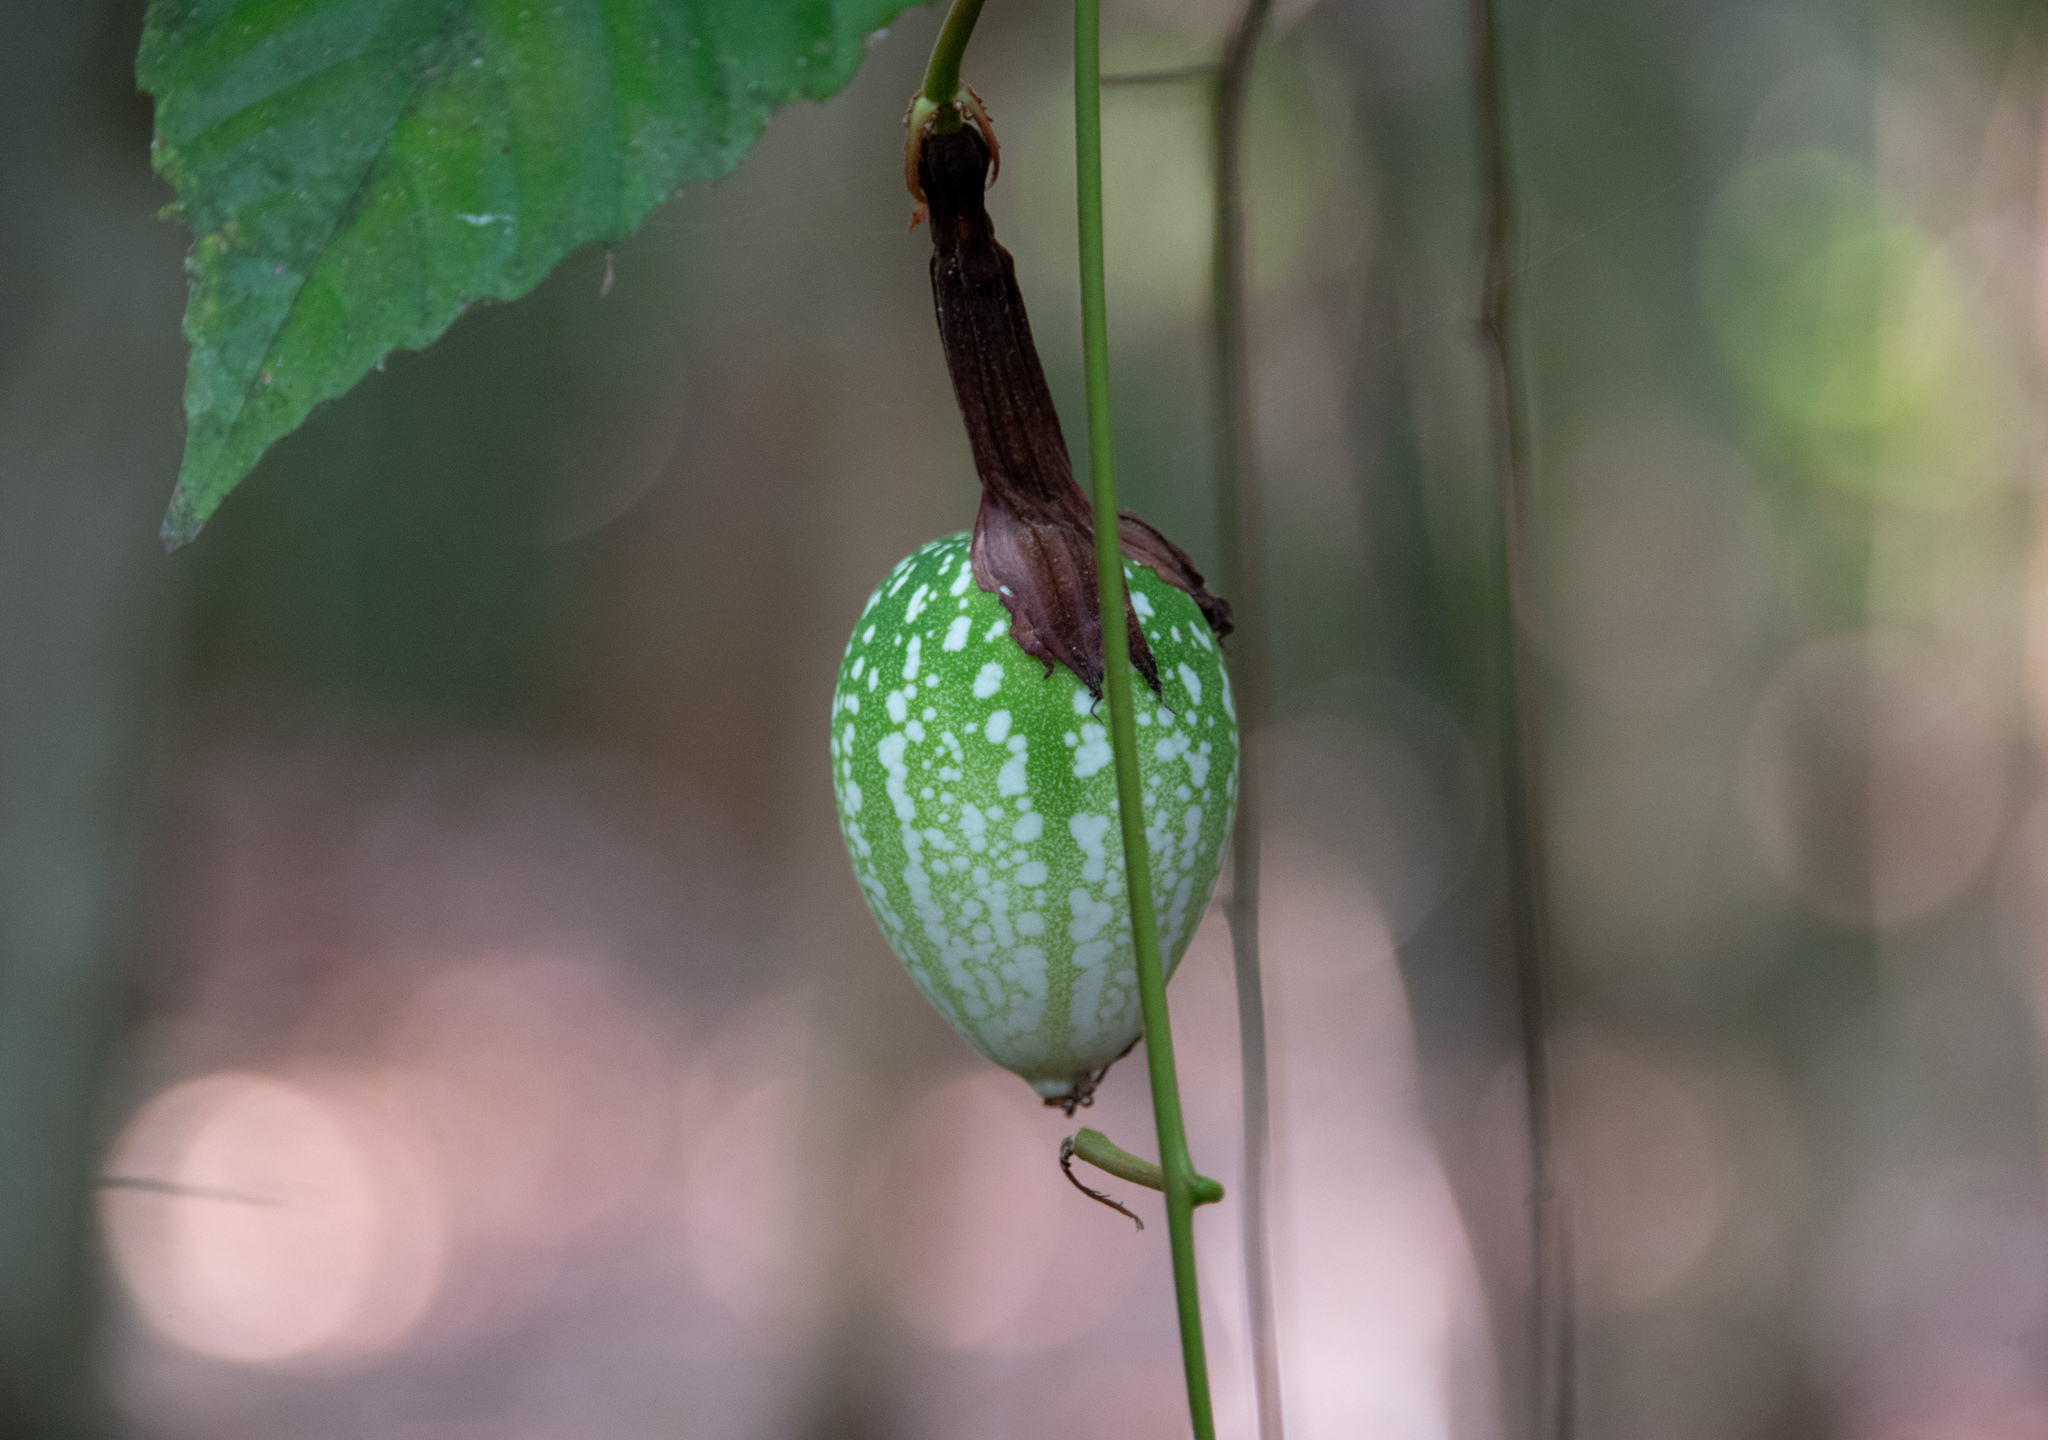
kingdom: Plantae
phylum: Tracheophyta
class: Magnoliopsida
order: Malpighiales
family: Passifloraceae
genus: Passiflora
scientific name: Passiflora vitifolia
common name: Perfumed passionflower
